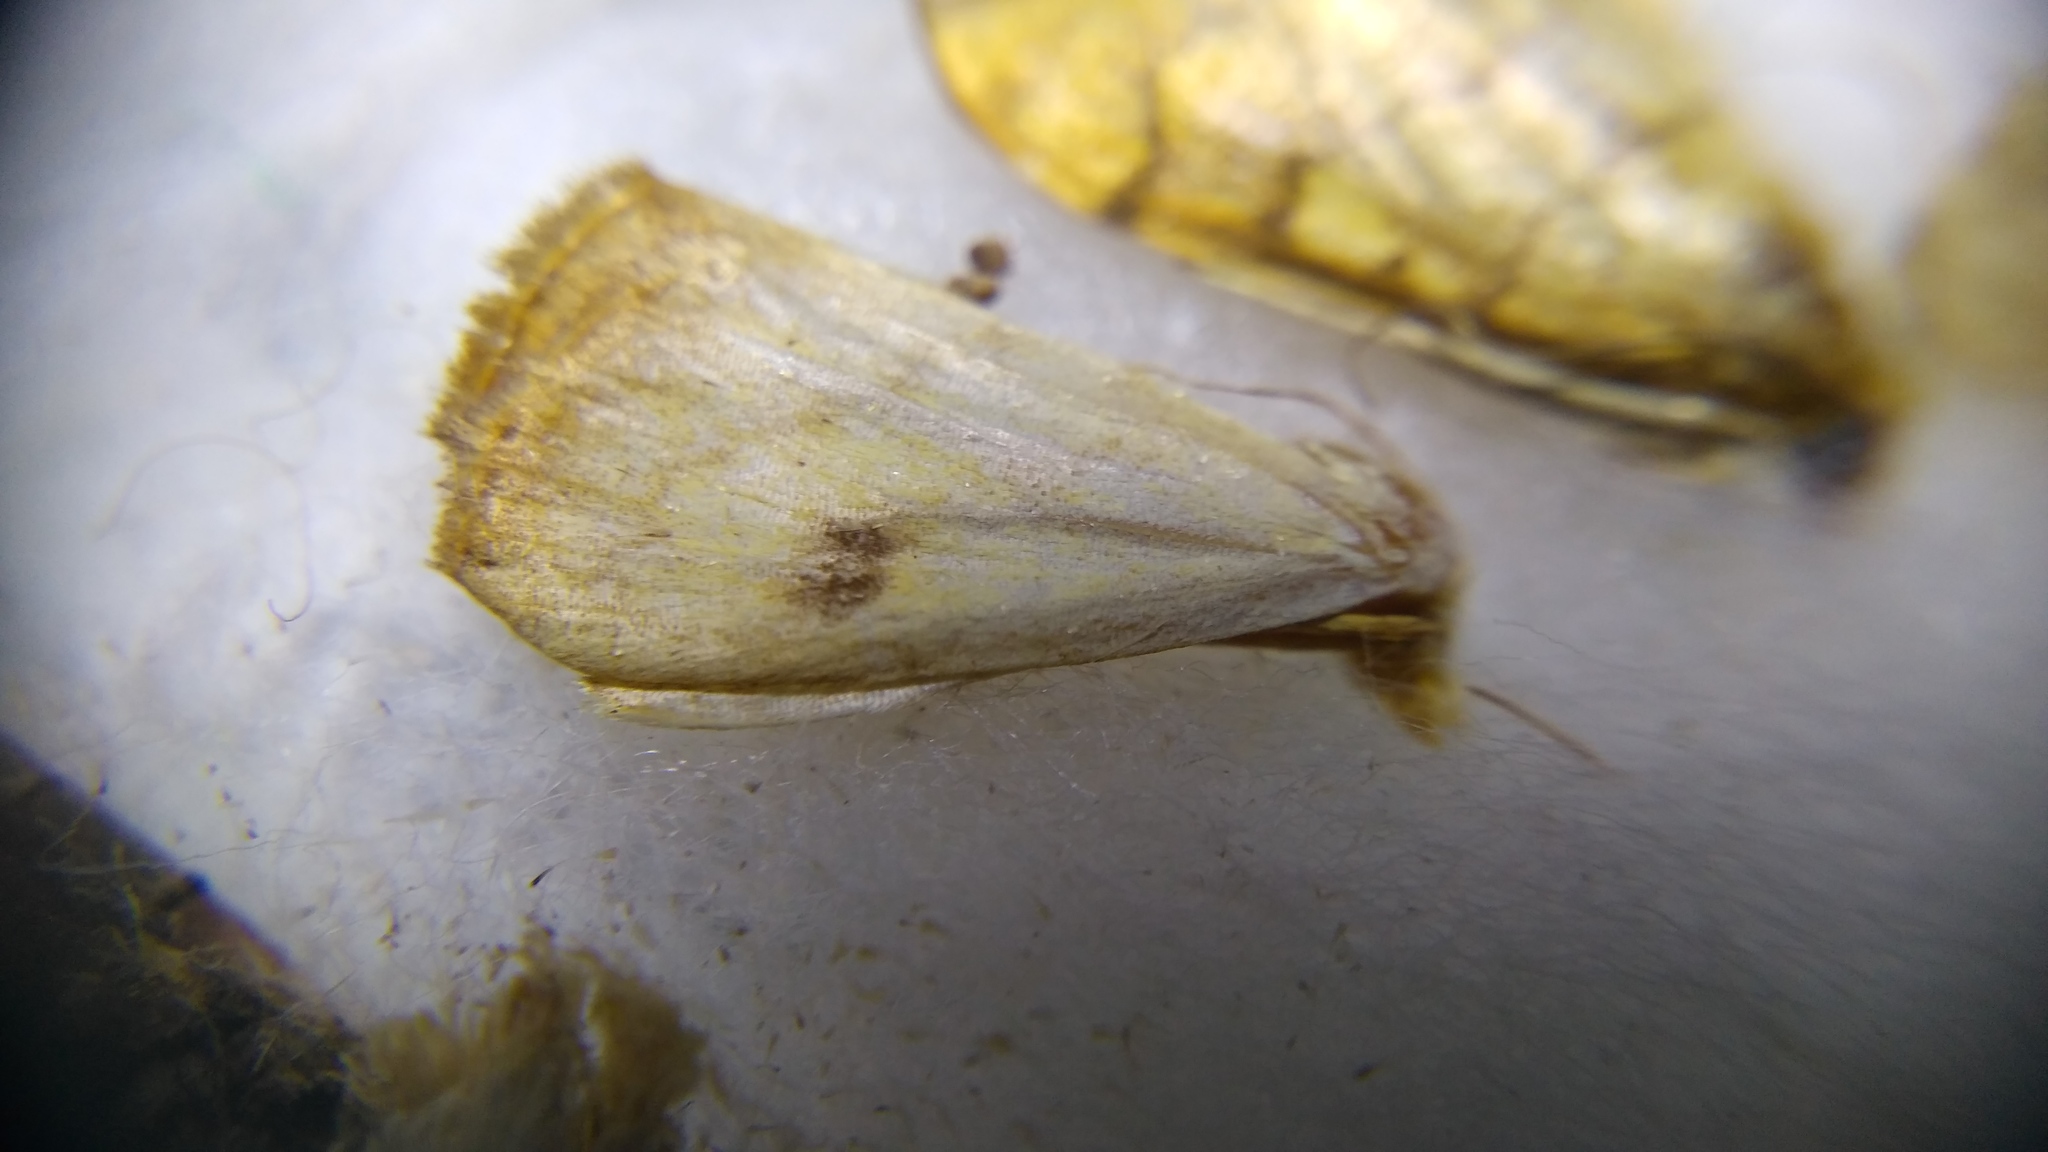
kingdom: Animalia
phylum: Arthropoda
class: Insecta
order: Lepidoptera
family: Erebidae
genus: Rivula
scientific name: Rivula sericealis
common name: Straw dot
